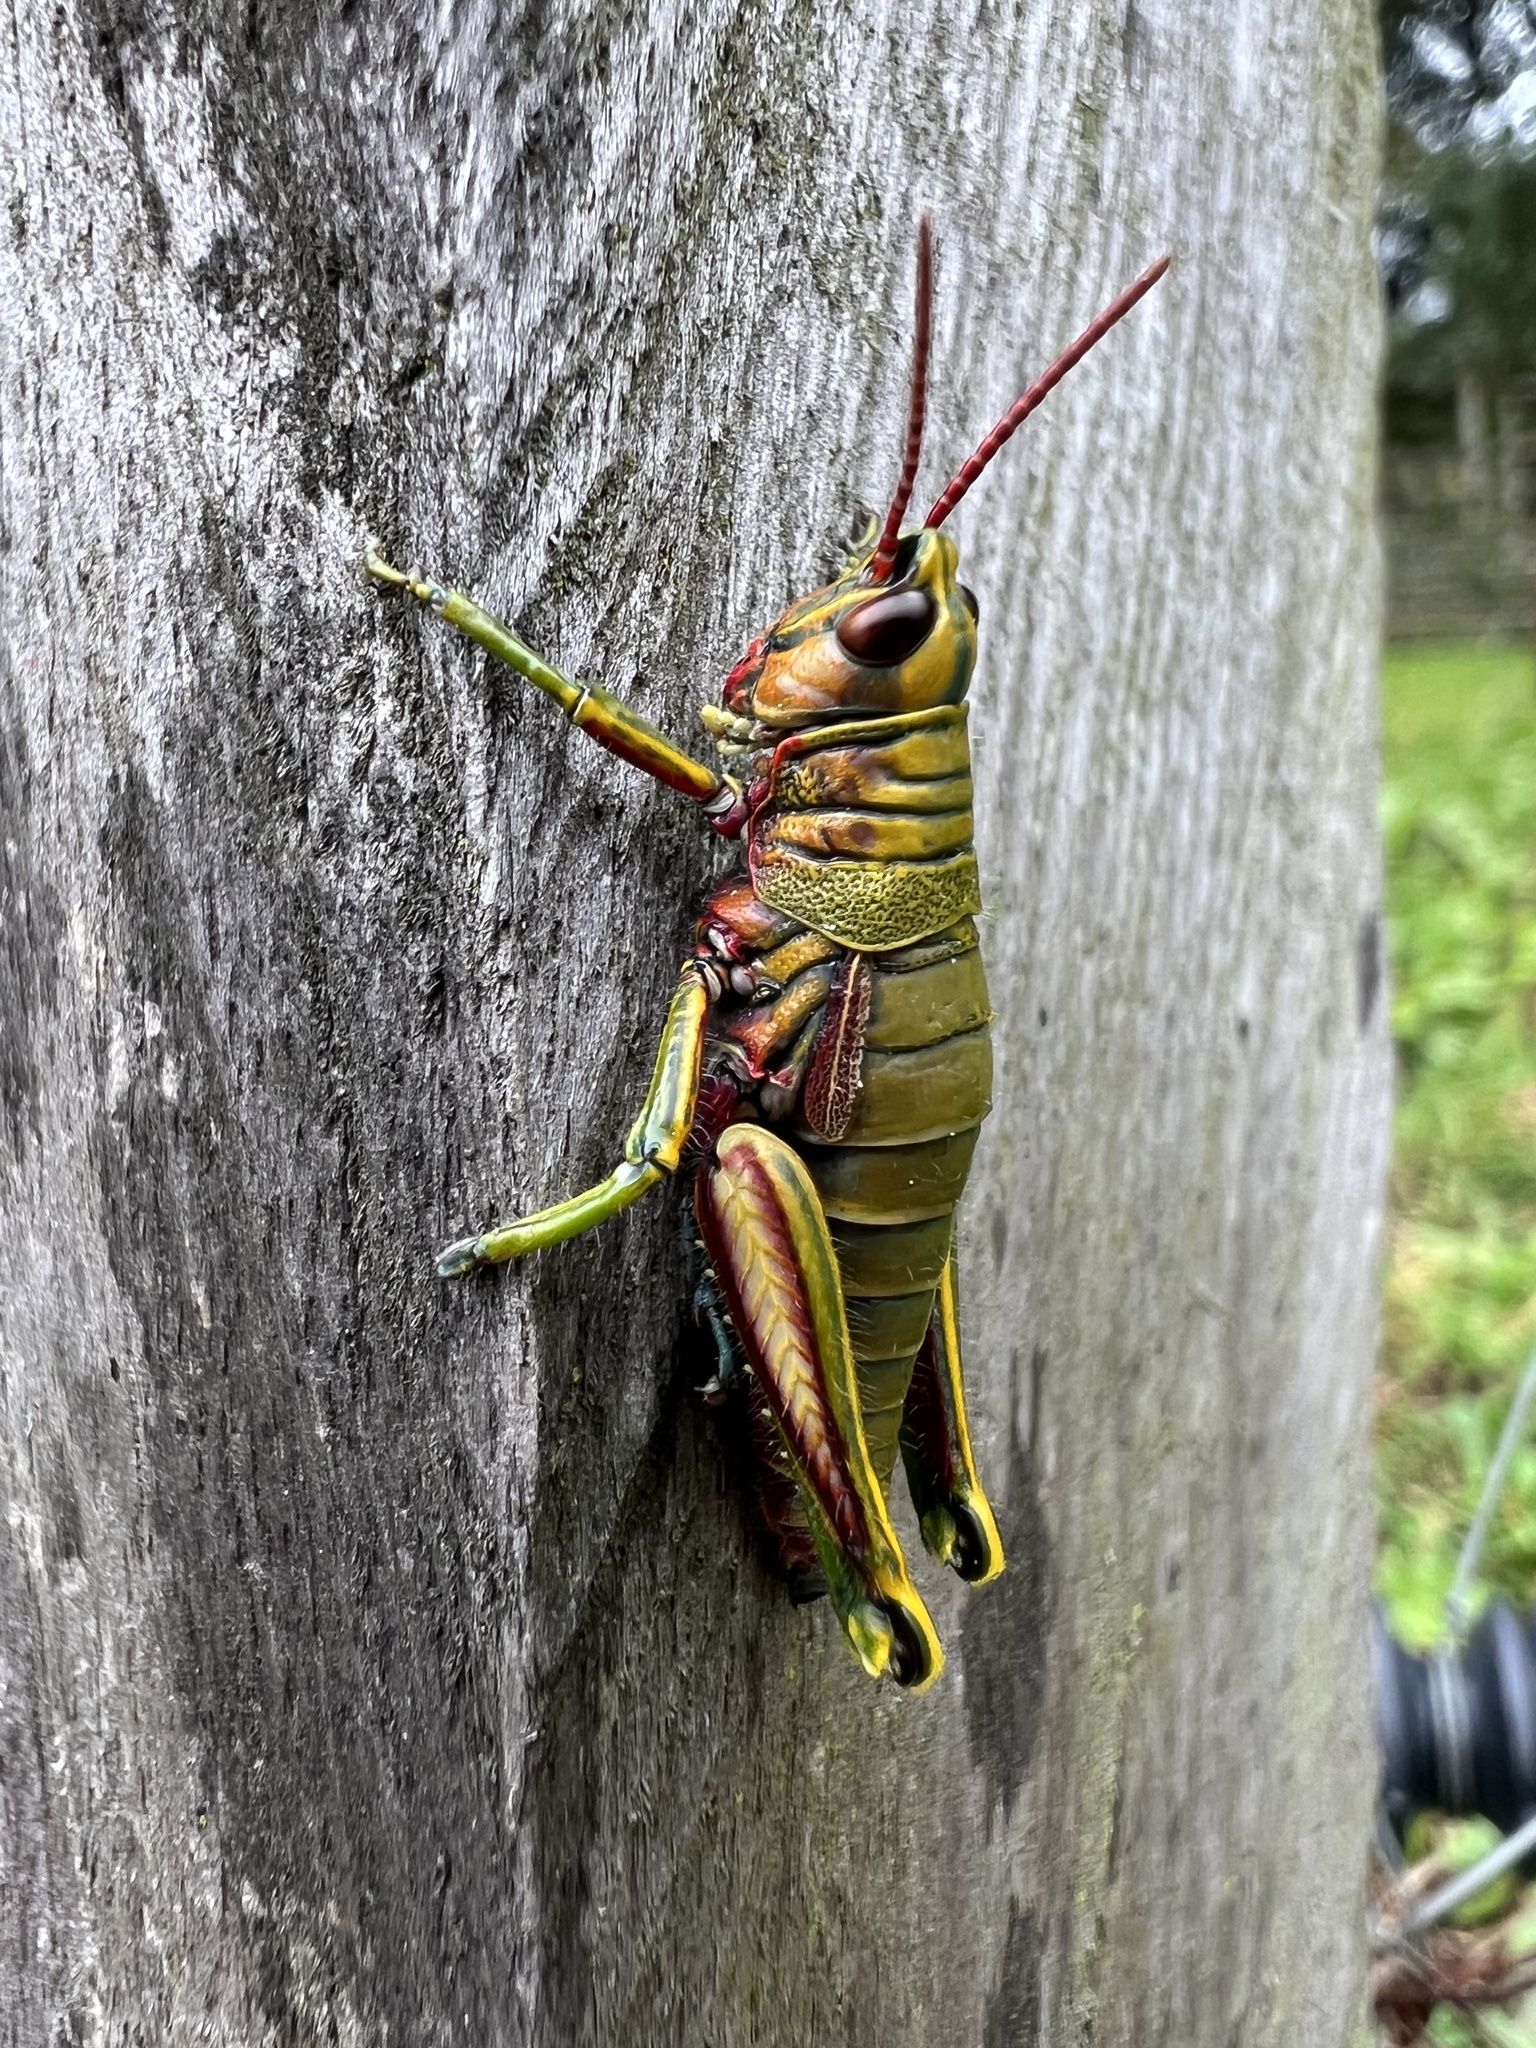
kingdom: Animalia
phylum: Arthropoda
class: Insecta
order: Orthoptera
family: Acrididae
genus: Agesander
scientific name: Agesander ruficornis
